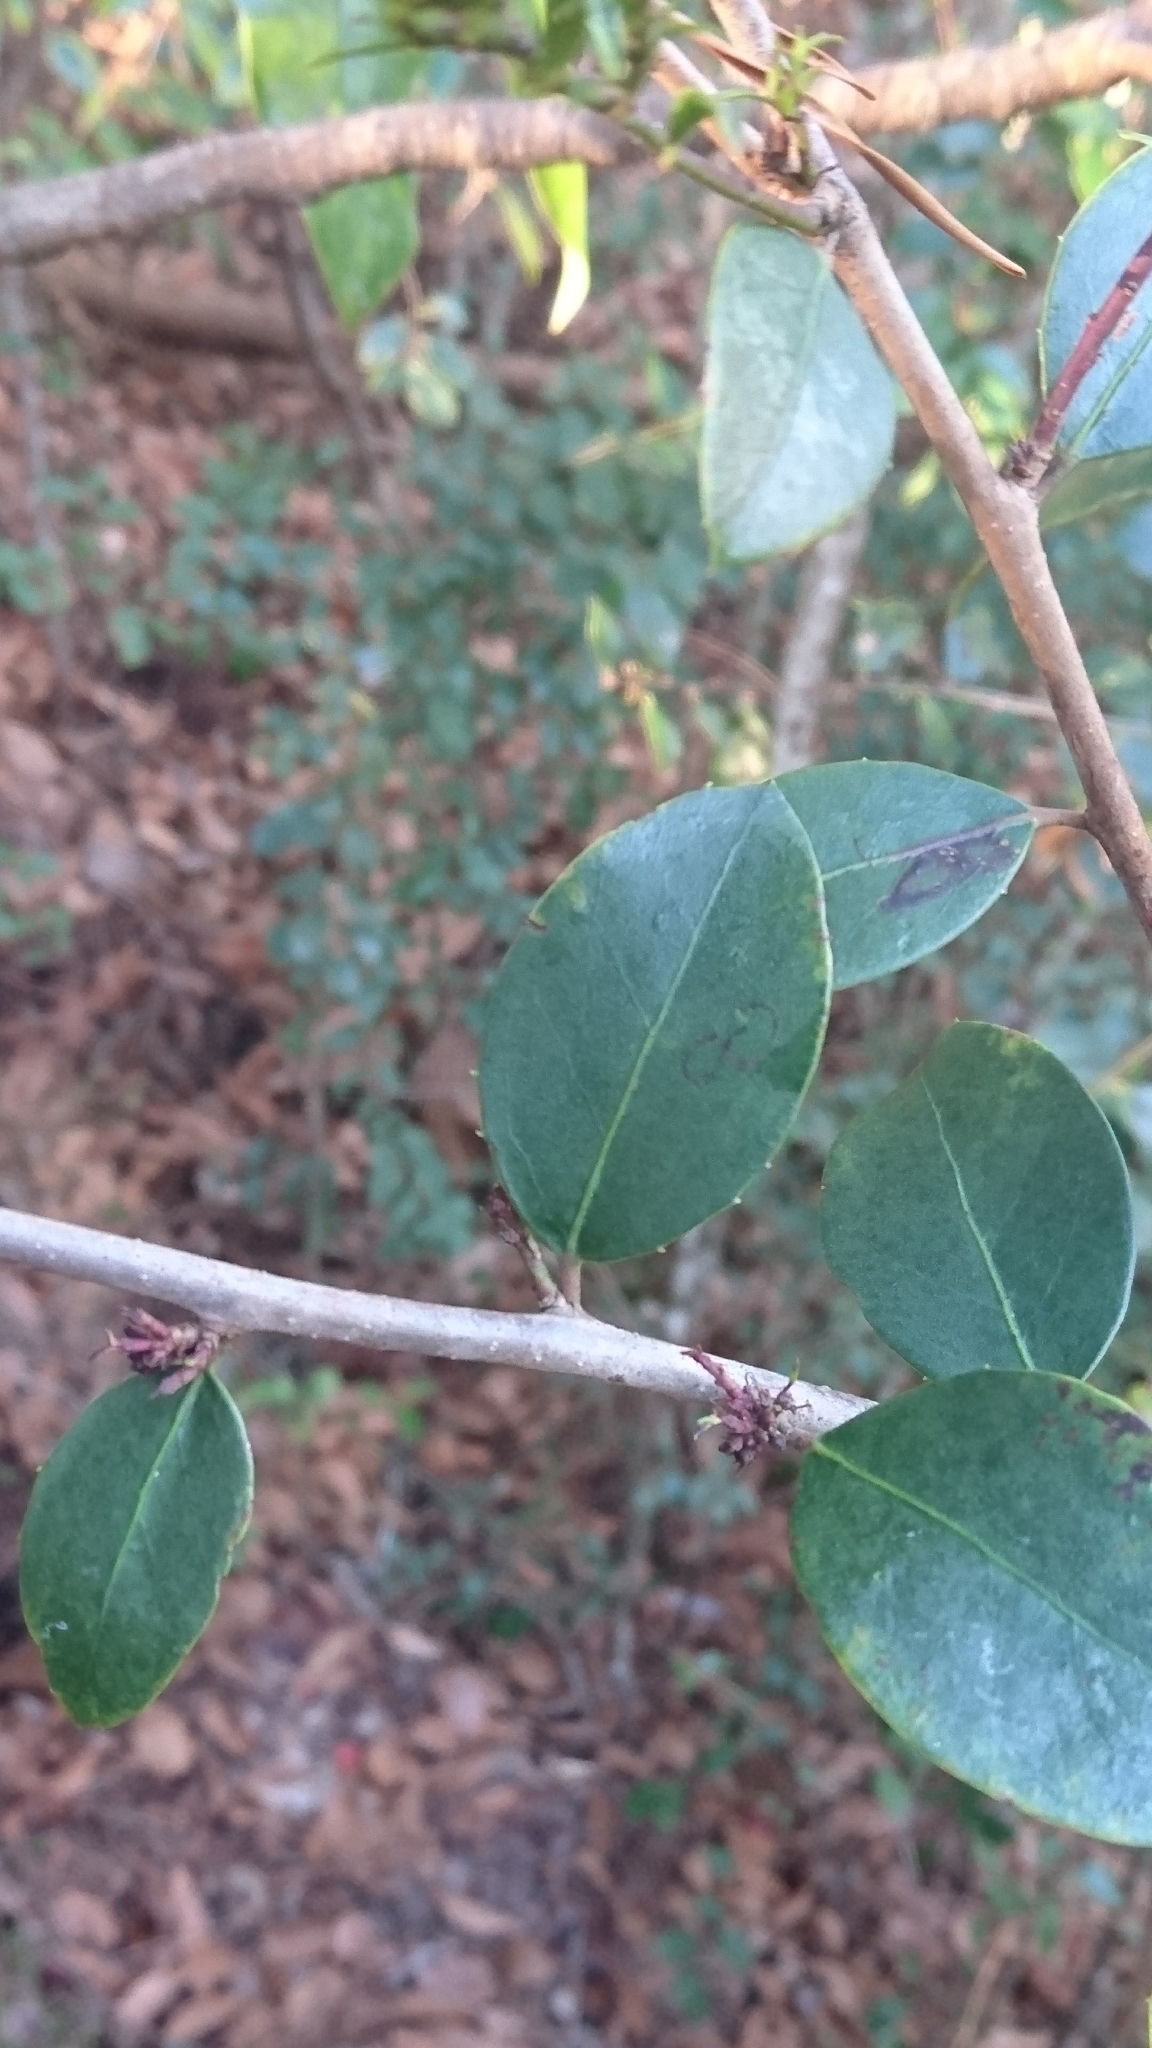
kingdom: Plantae
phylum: Tracheophyta
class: Magnoliopsida
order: Aquifoliales
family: Aquifoliaceae
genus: Ilex
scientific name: Ilex coriacea
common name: Sweet gallberry
